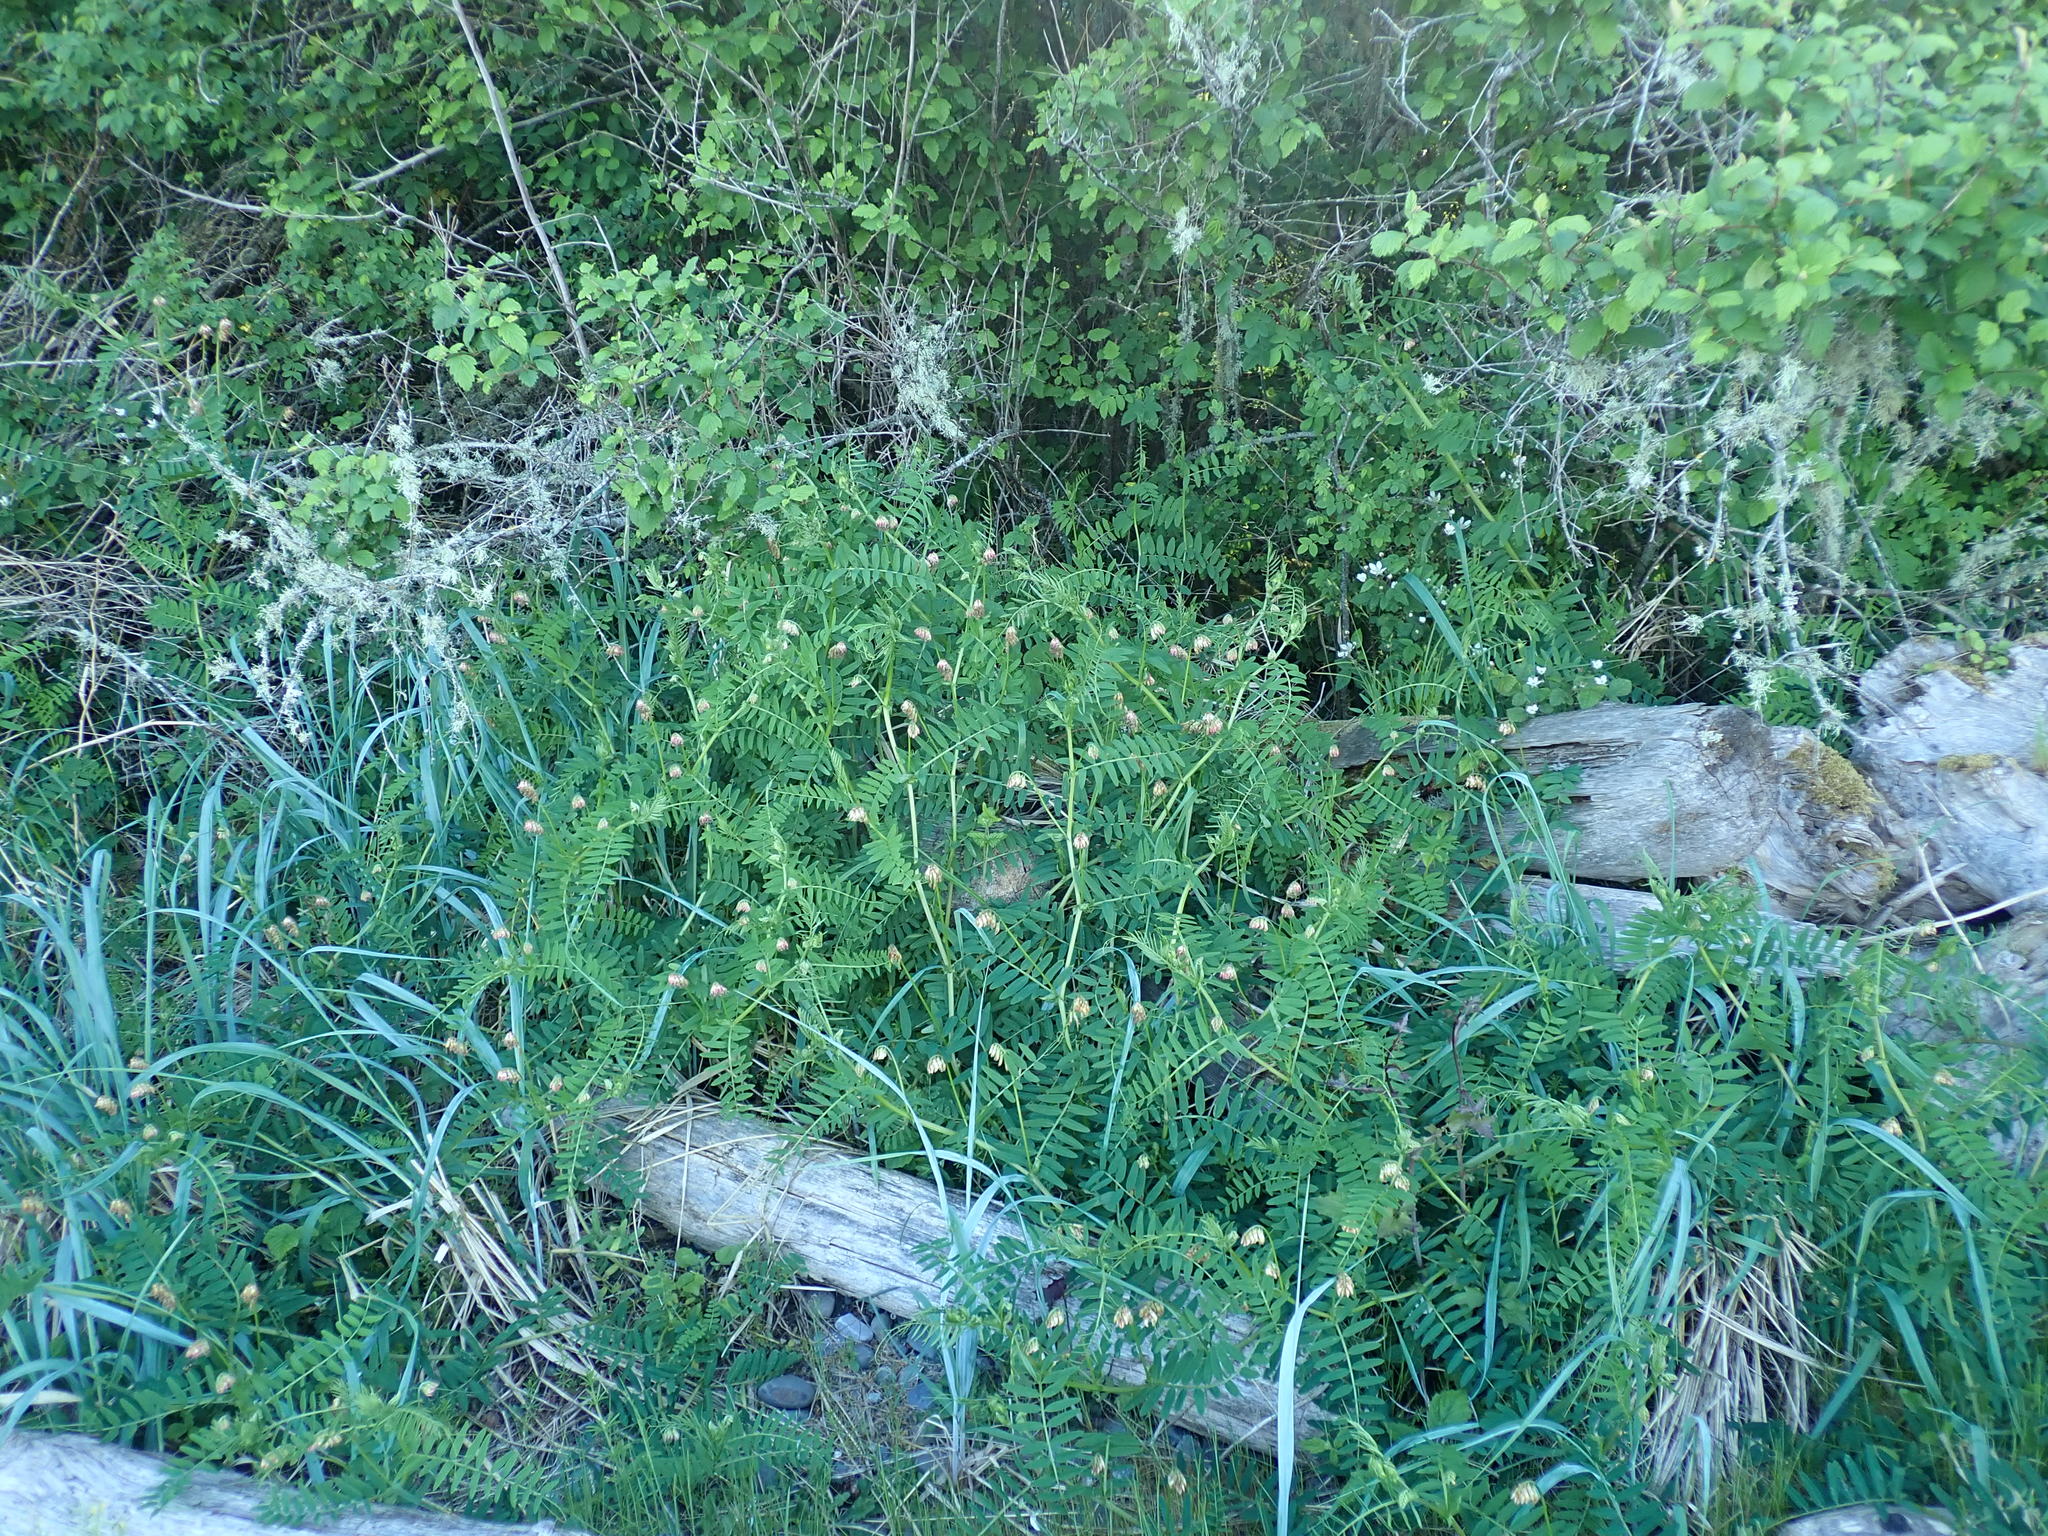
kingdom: Plantae
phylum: Tracheophyta
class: Magnoliopsida
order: Fabales
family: Fabaceae
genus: Vicia
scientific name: Vicia
